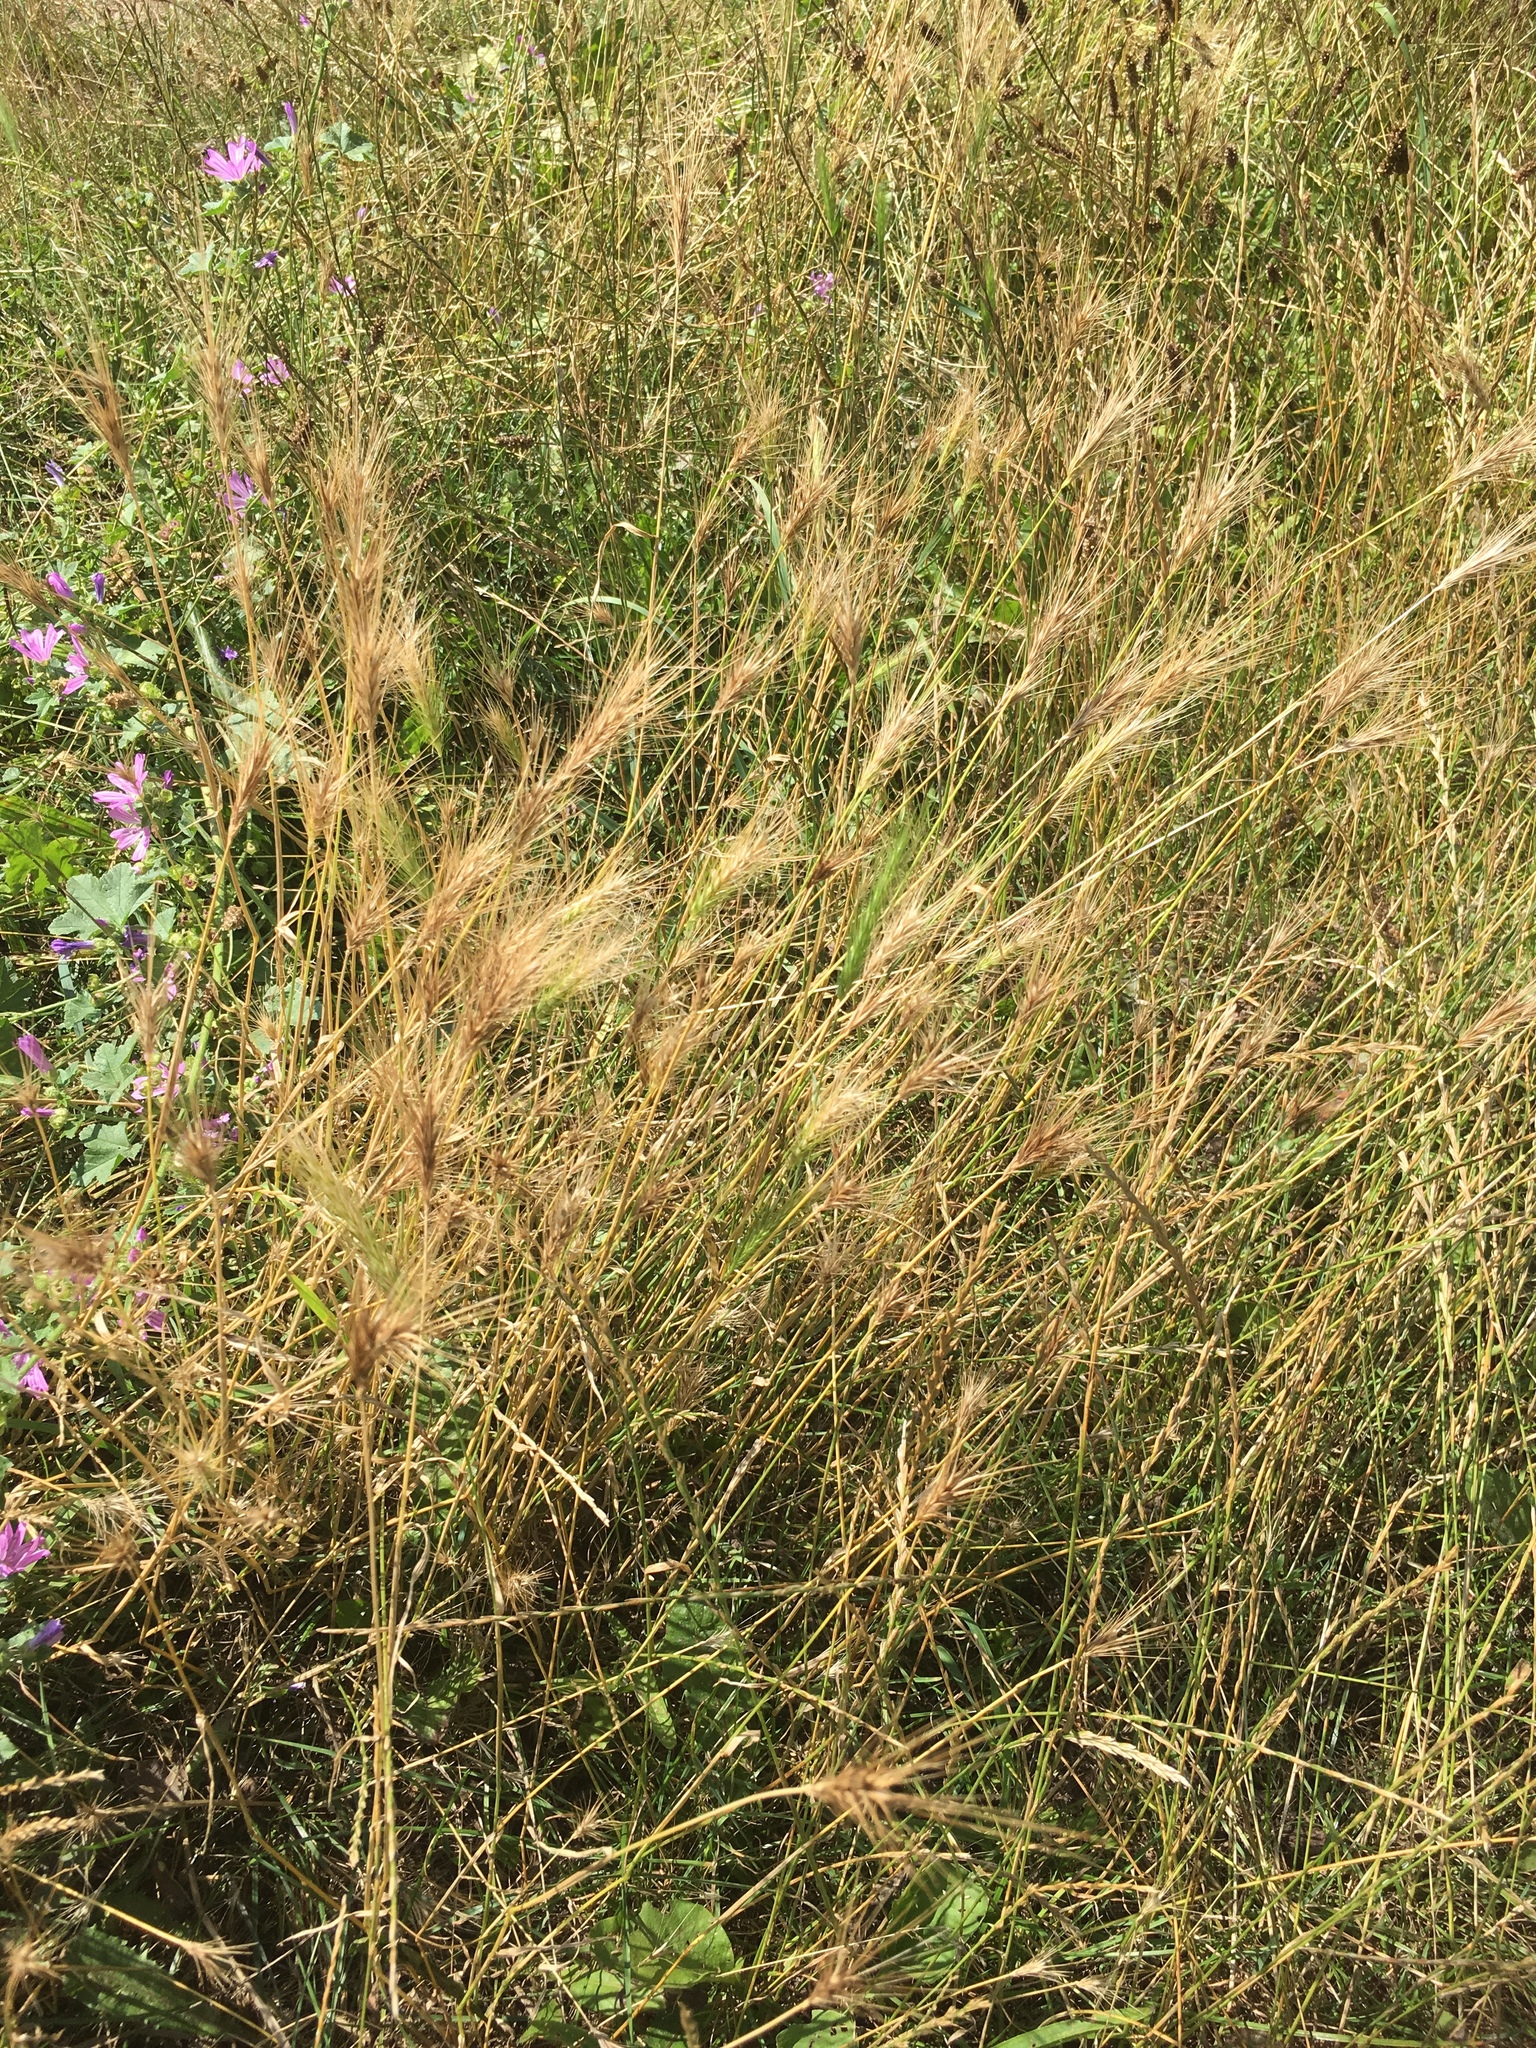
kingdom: Plantae
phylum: Tracheophyta
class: Liliopsida
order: Poales
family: Poaceae
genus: Hordeum
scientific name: Hordeum murinum
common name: Wall barley
